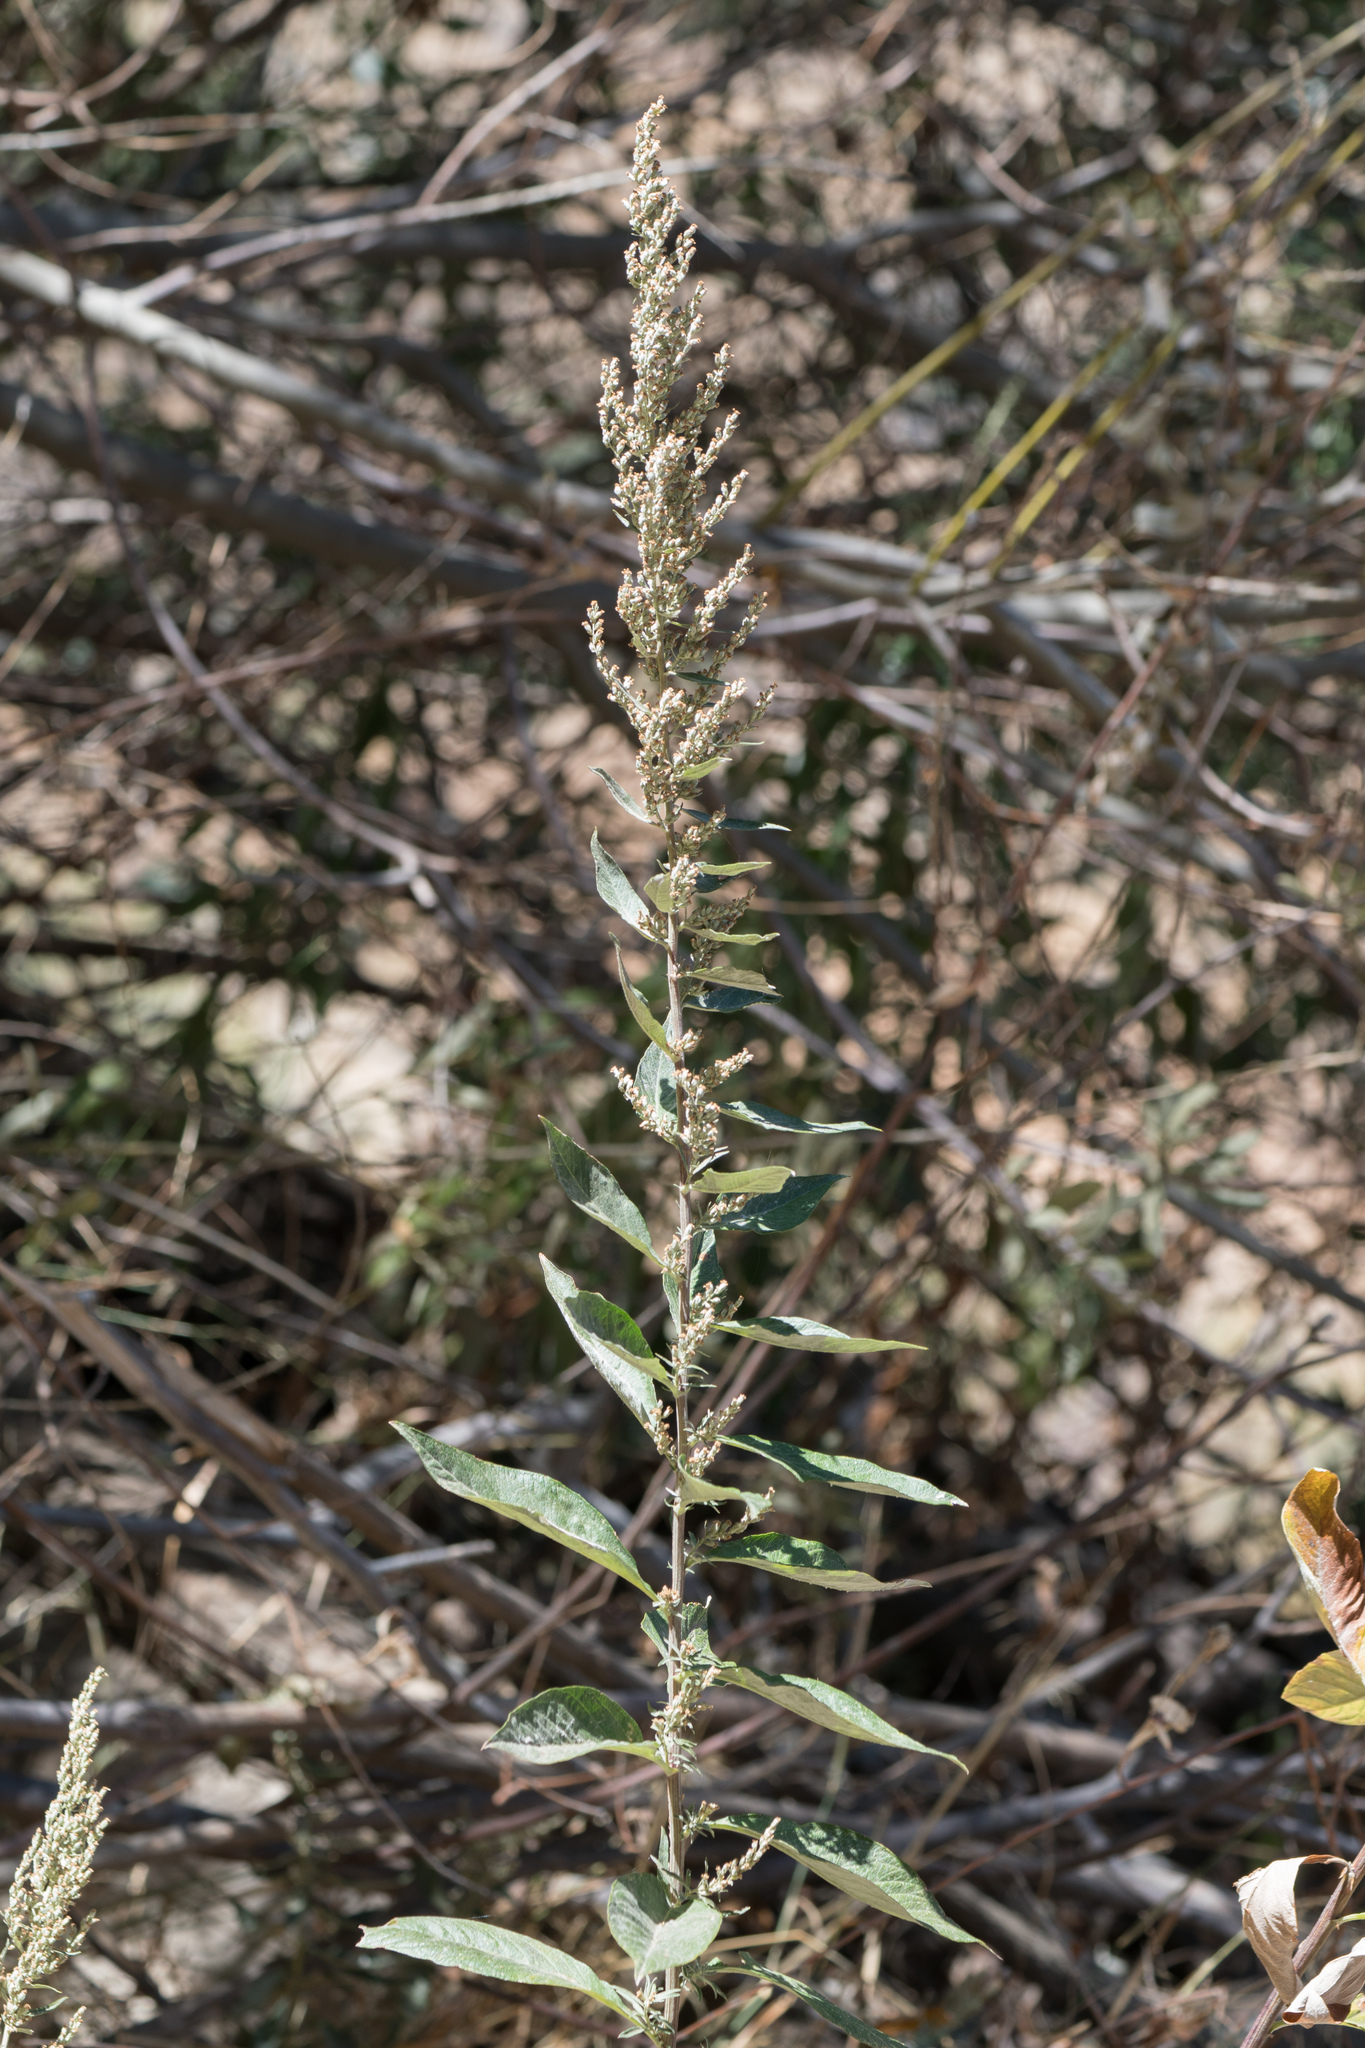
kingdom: Plantae
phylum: Tracheophyta
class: Magnoliopsida
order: Asterales
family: Asteraceae
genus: Artemisia
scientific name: Artemisia douglasiana
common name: Northwest mugwort
